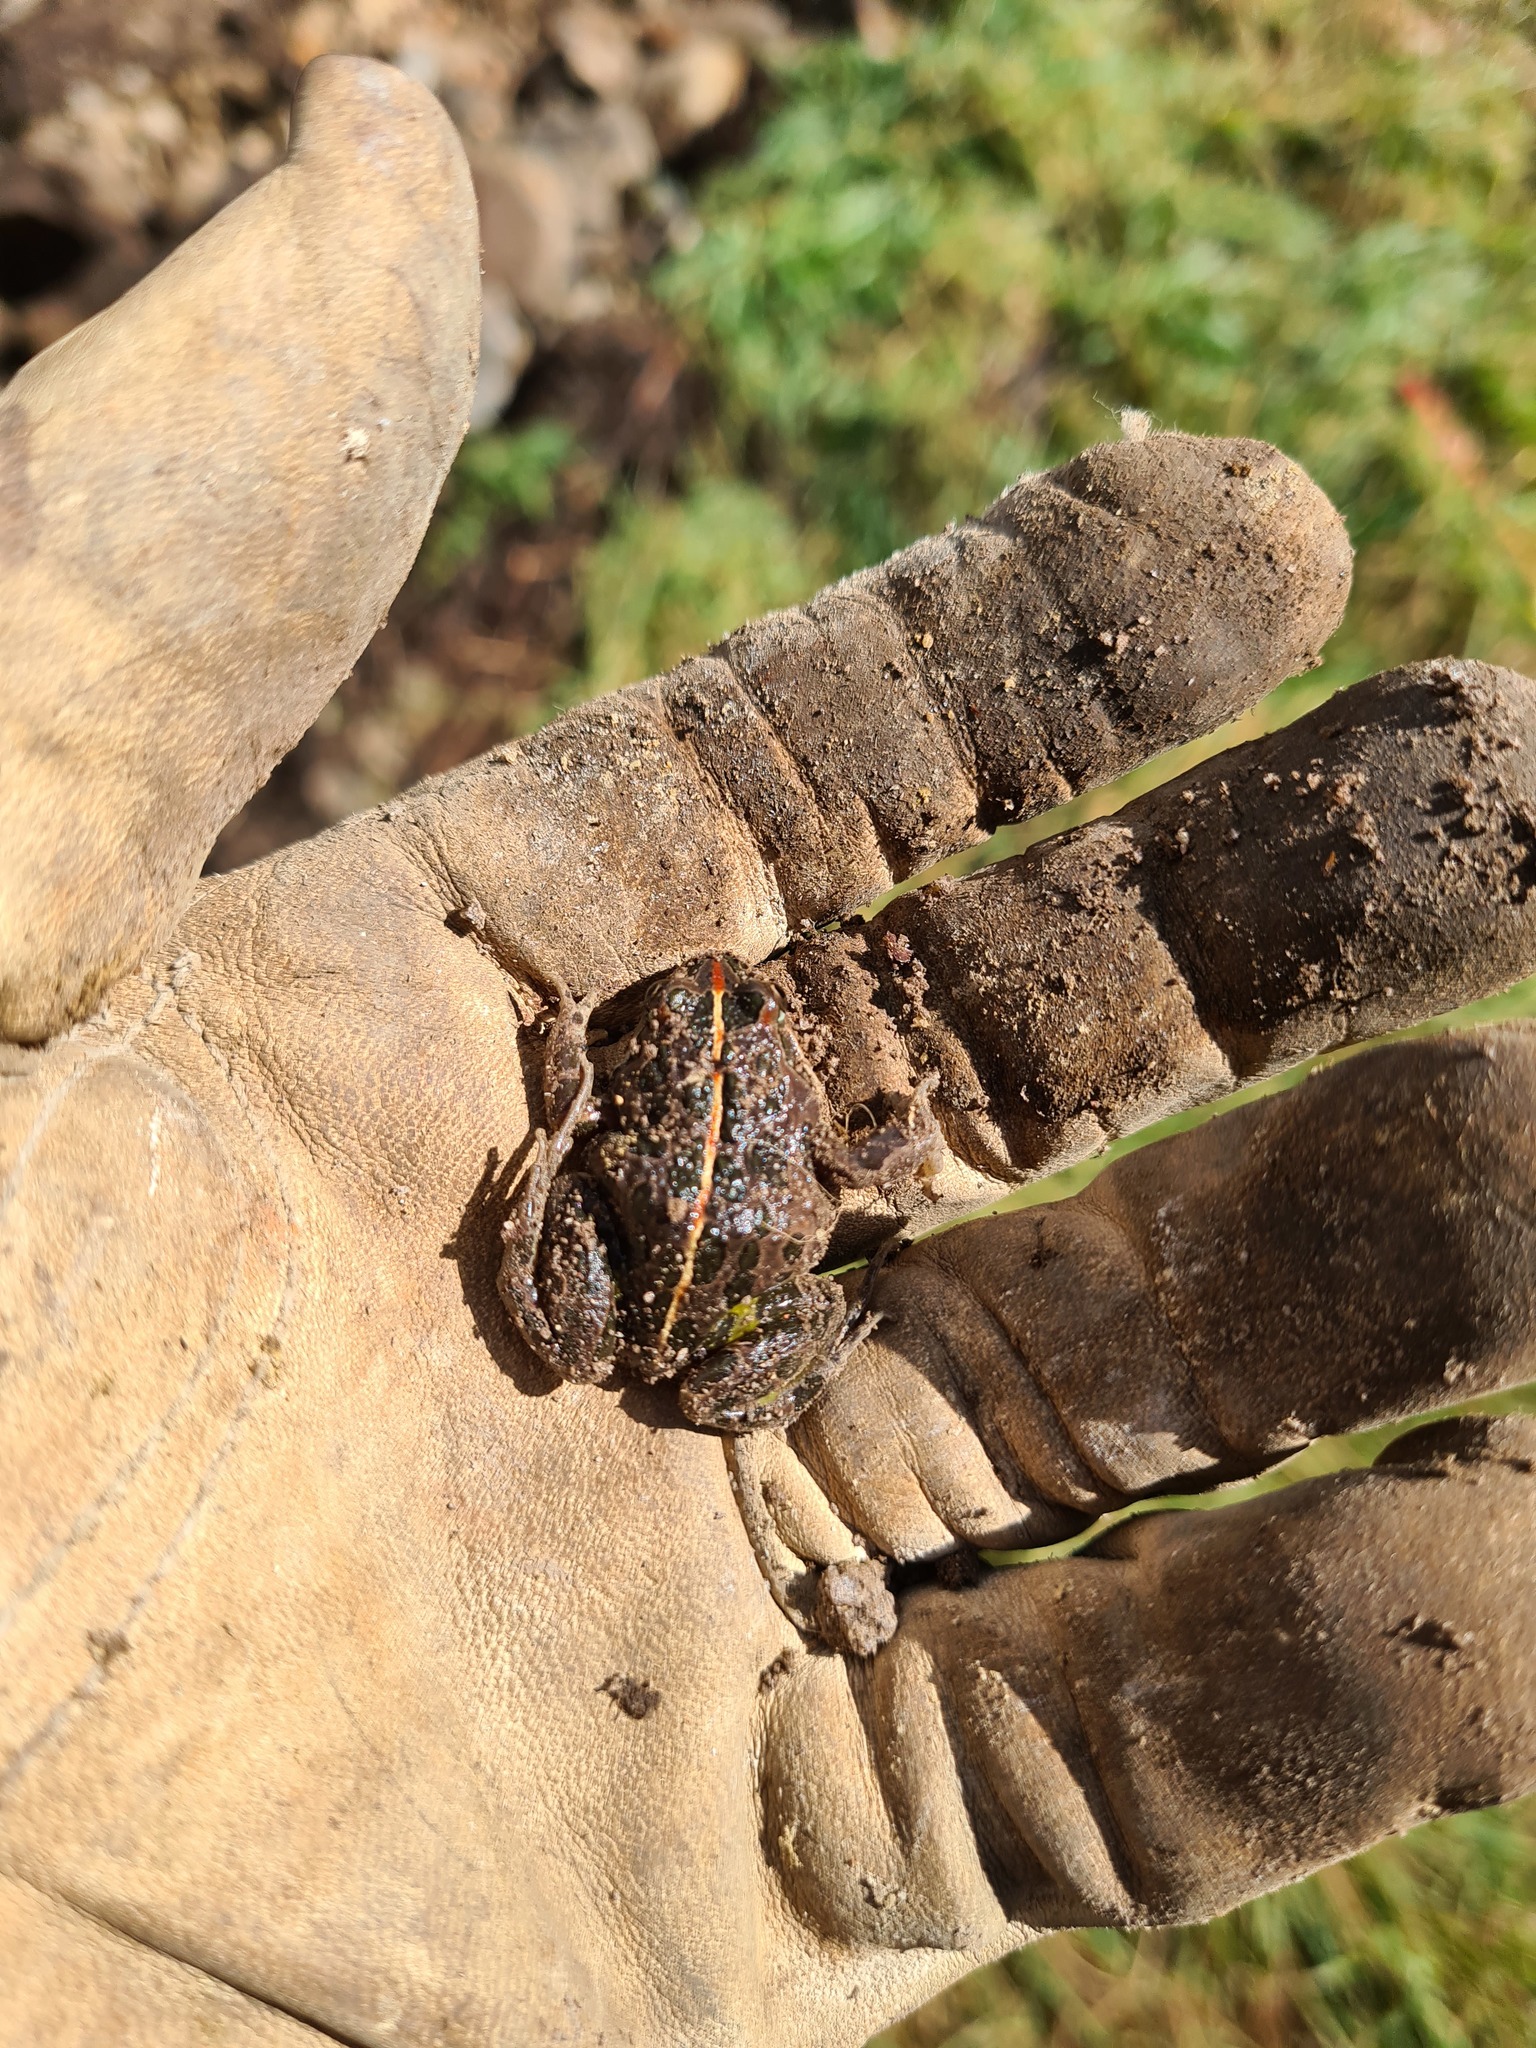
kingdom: Animalia
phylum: Chordata
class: Amphibia
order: Anura
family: Limnodynastidae
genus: Limnodynastes
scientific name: Limnodynastes tasmaniensis
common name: Spotted marsh frog
